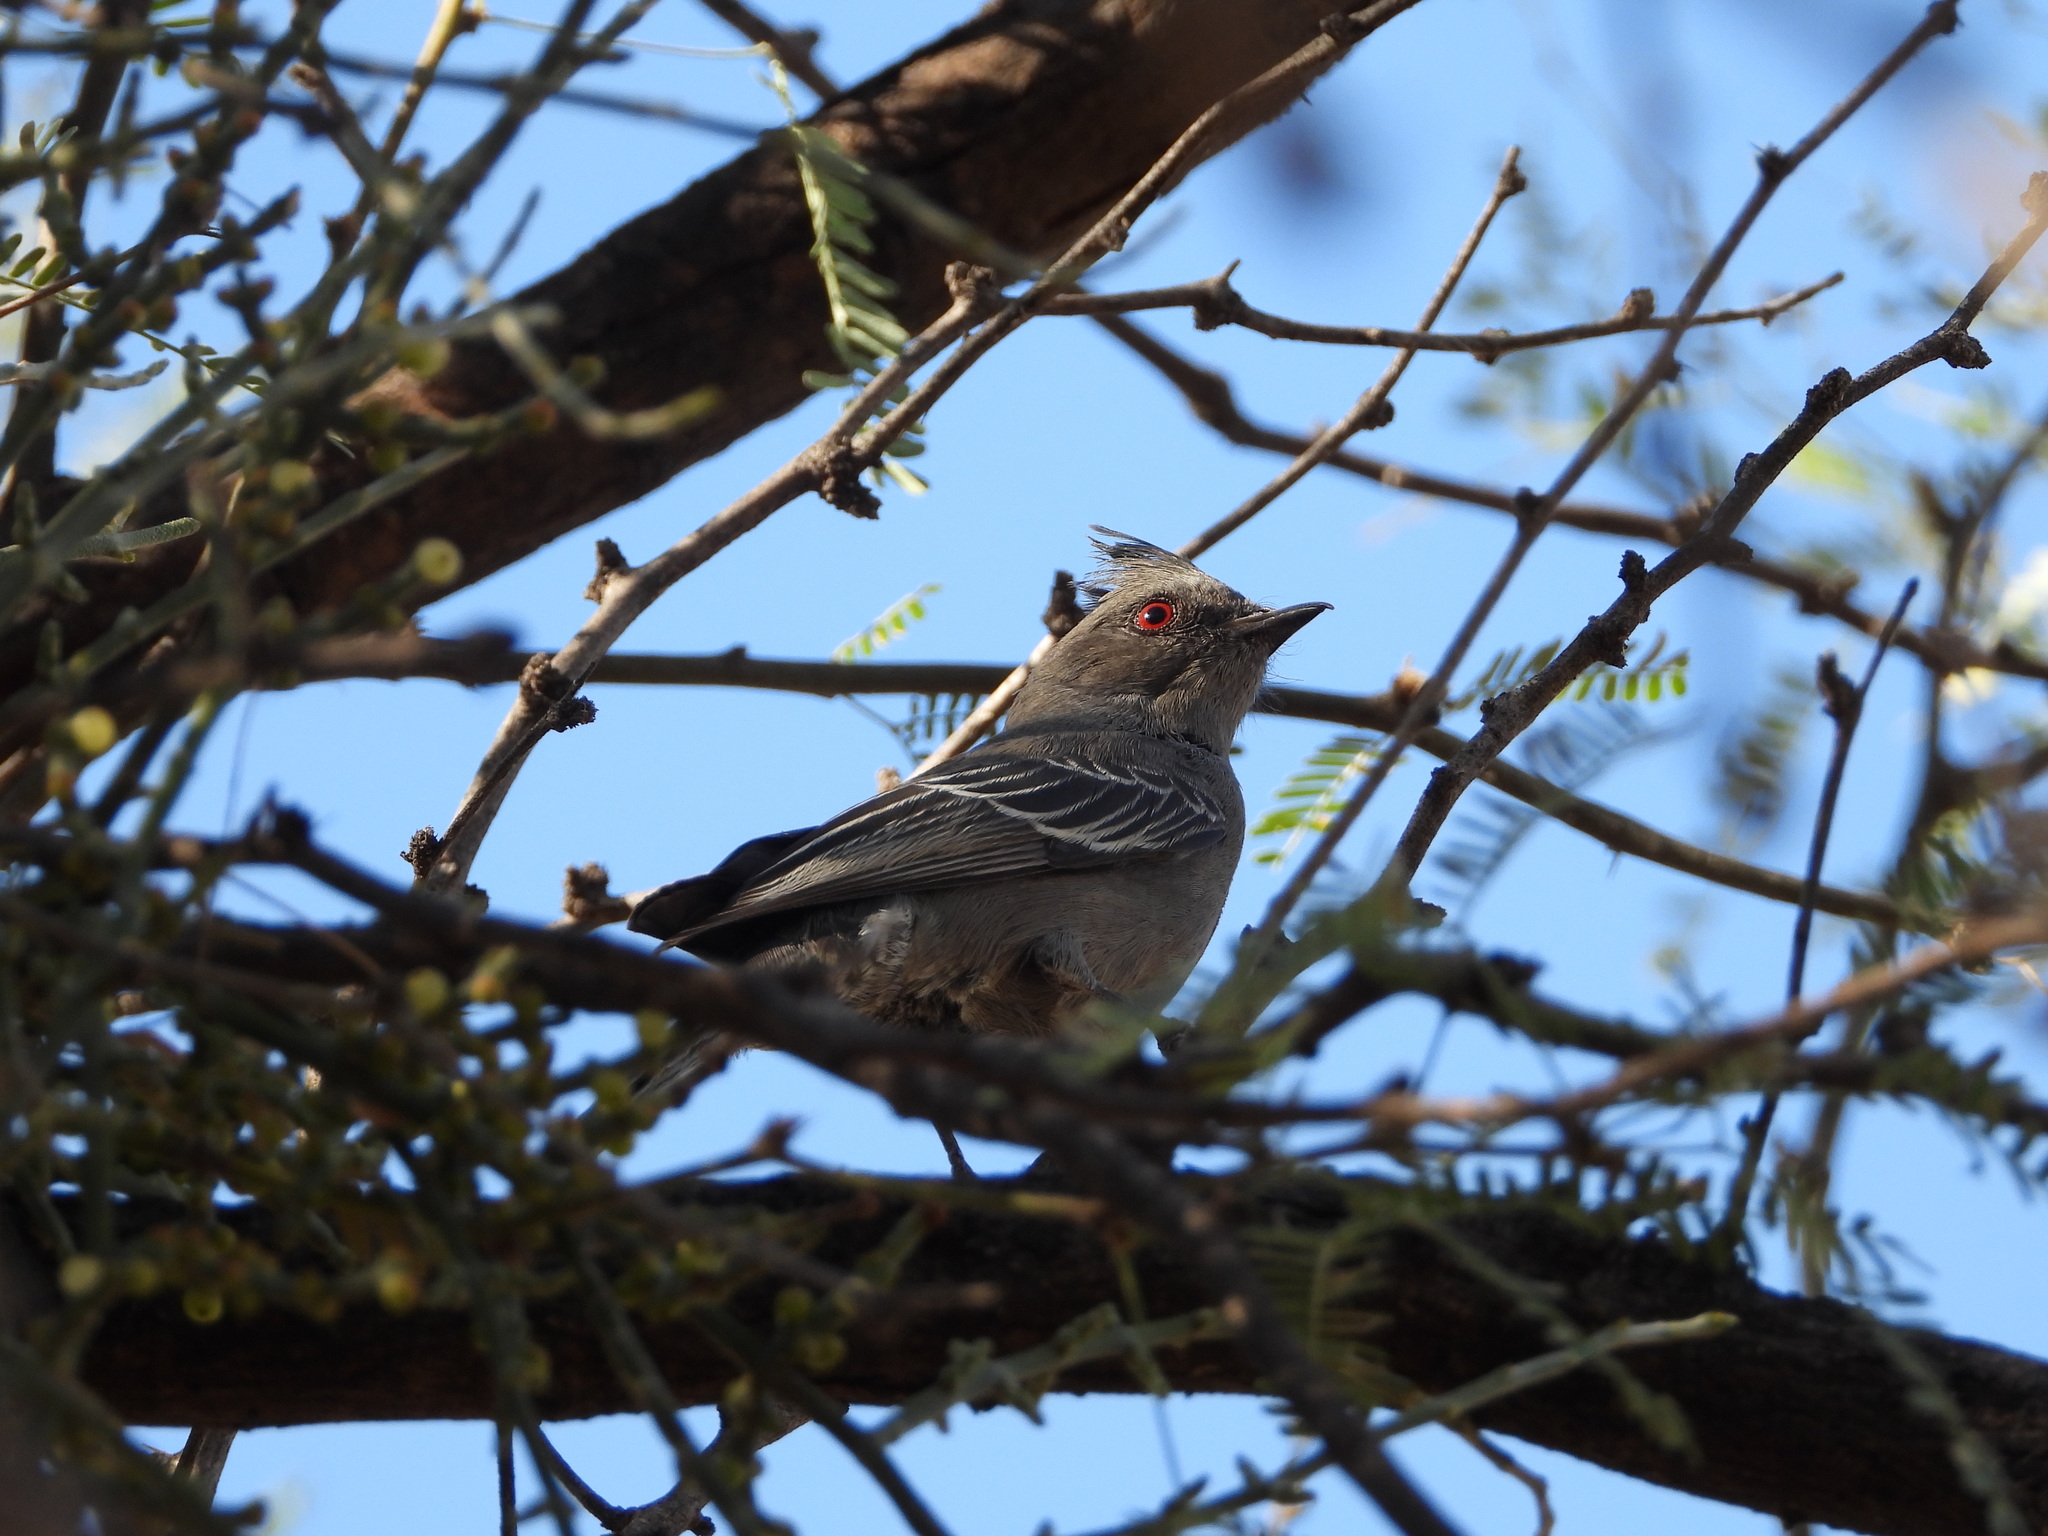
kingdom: Animalia
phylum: Chordata
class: Aves
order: Passeriformes
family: Ptilogonatidae
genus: Phainopepla
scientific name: Phainopepla nitens
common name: Phainopepla
